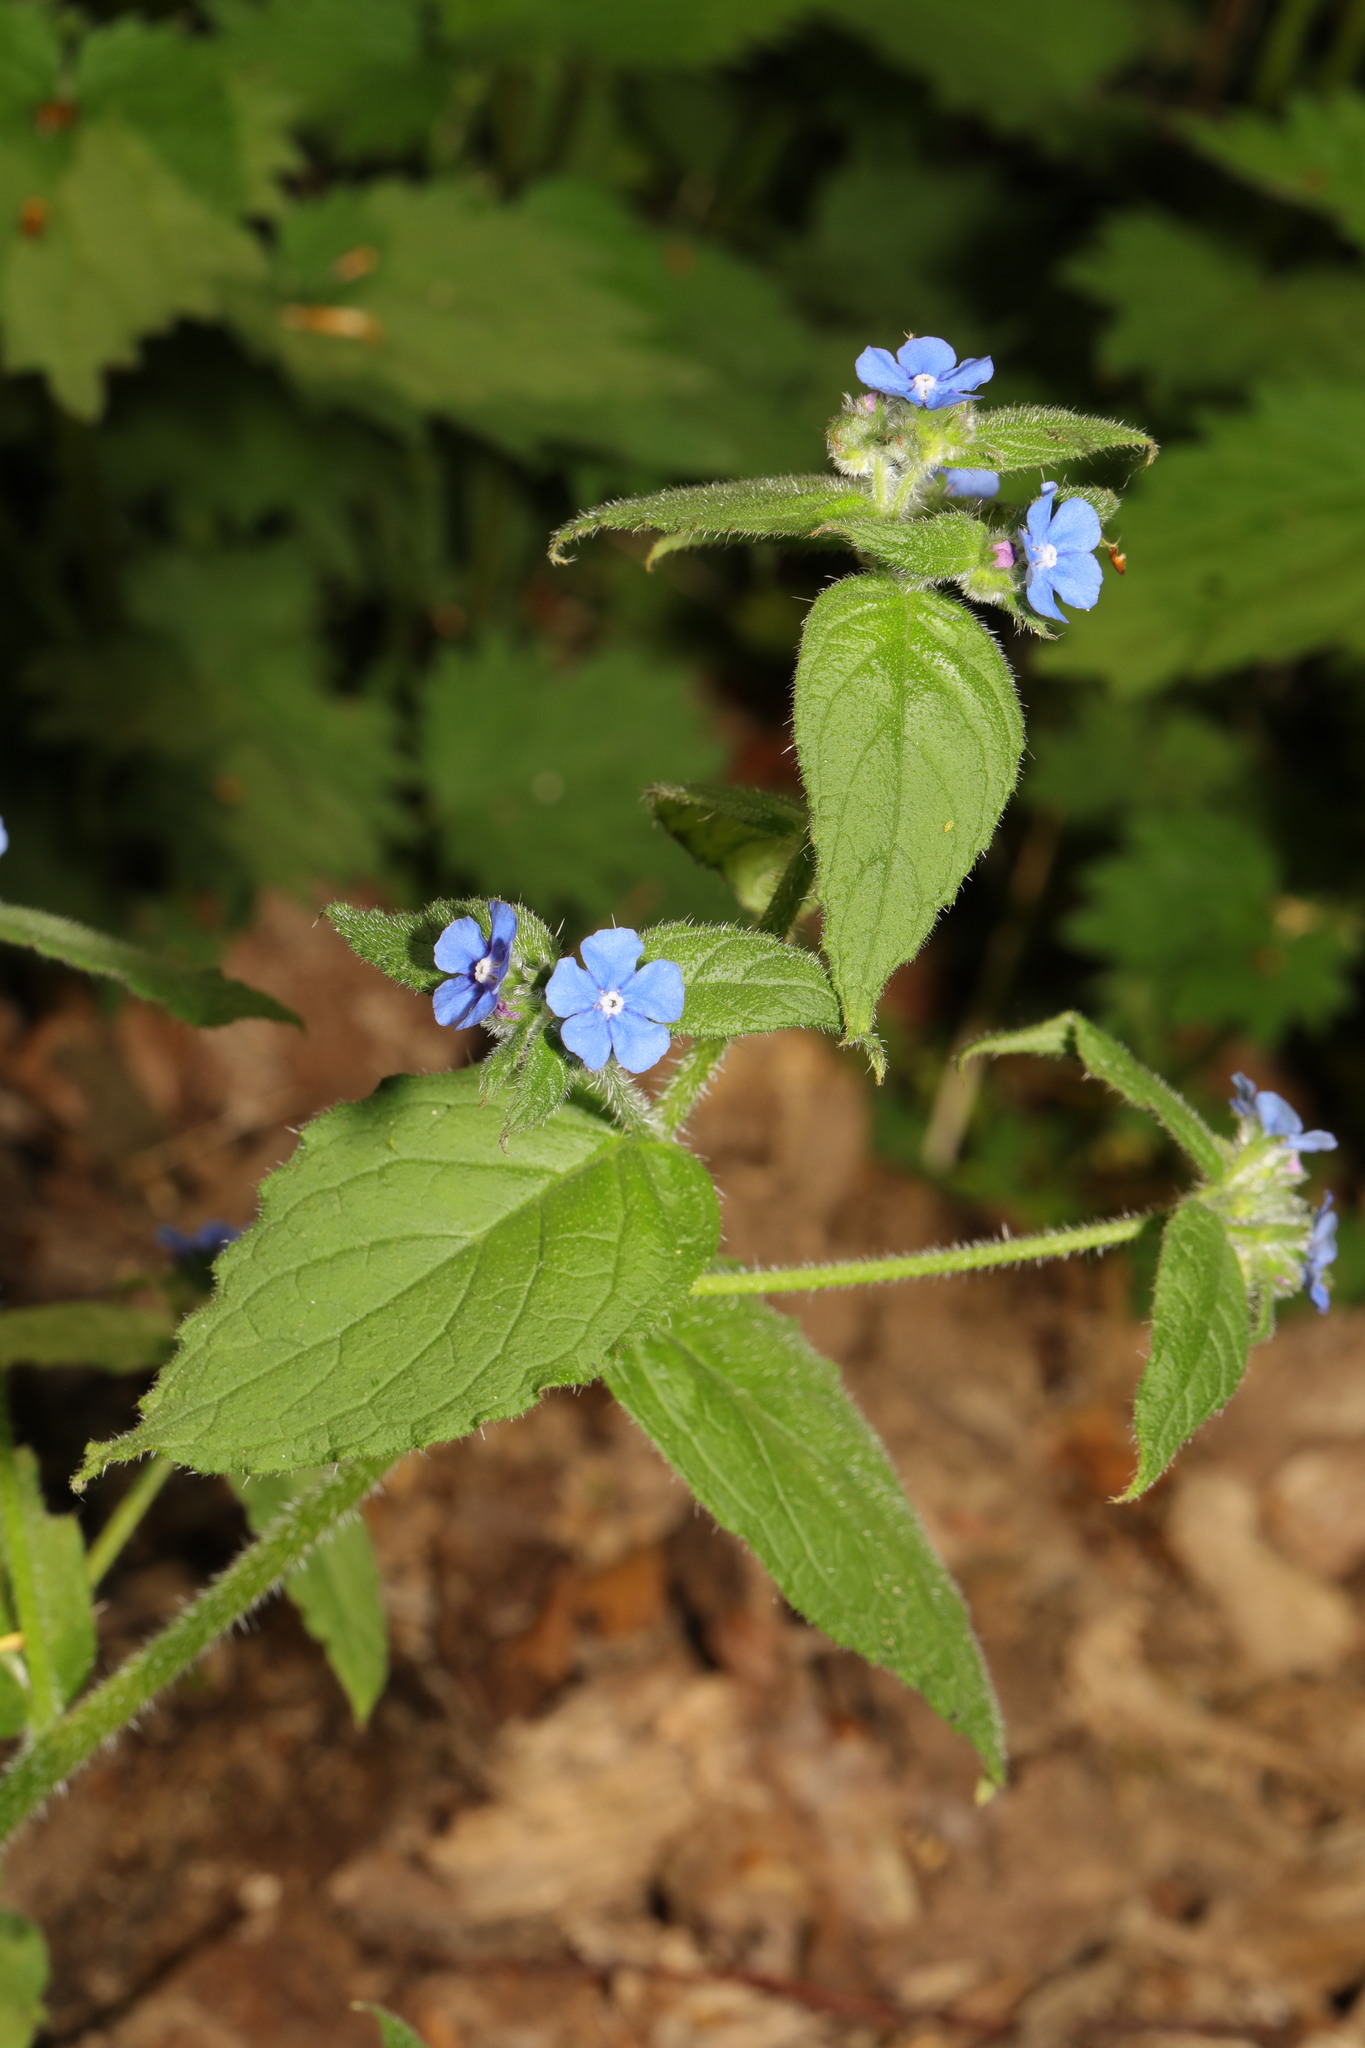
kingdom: Plantae
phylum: Tracheophyta
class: Magnoliopsida
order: Boraginales
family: Boraginaceae
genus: Pentaglottis
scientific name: Pentaglottis sempervirens
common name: Green alkanet
